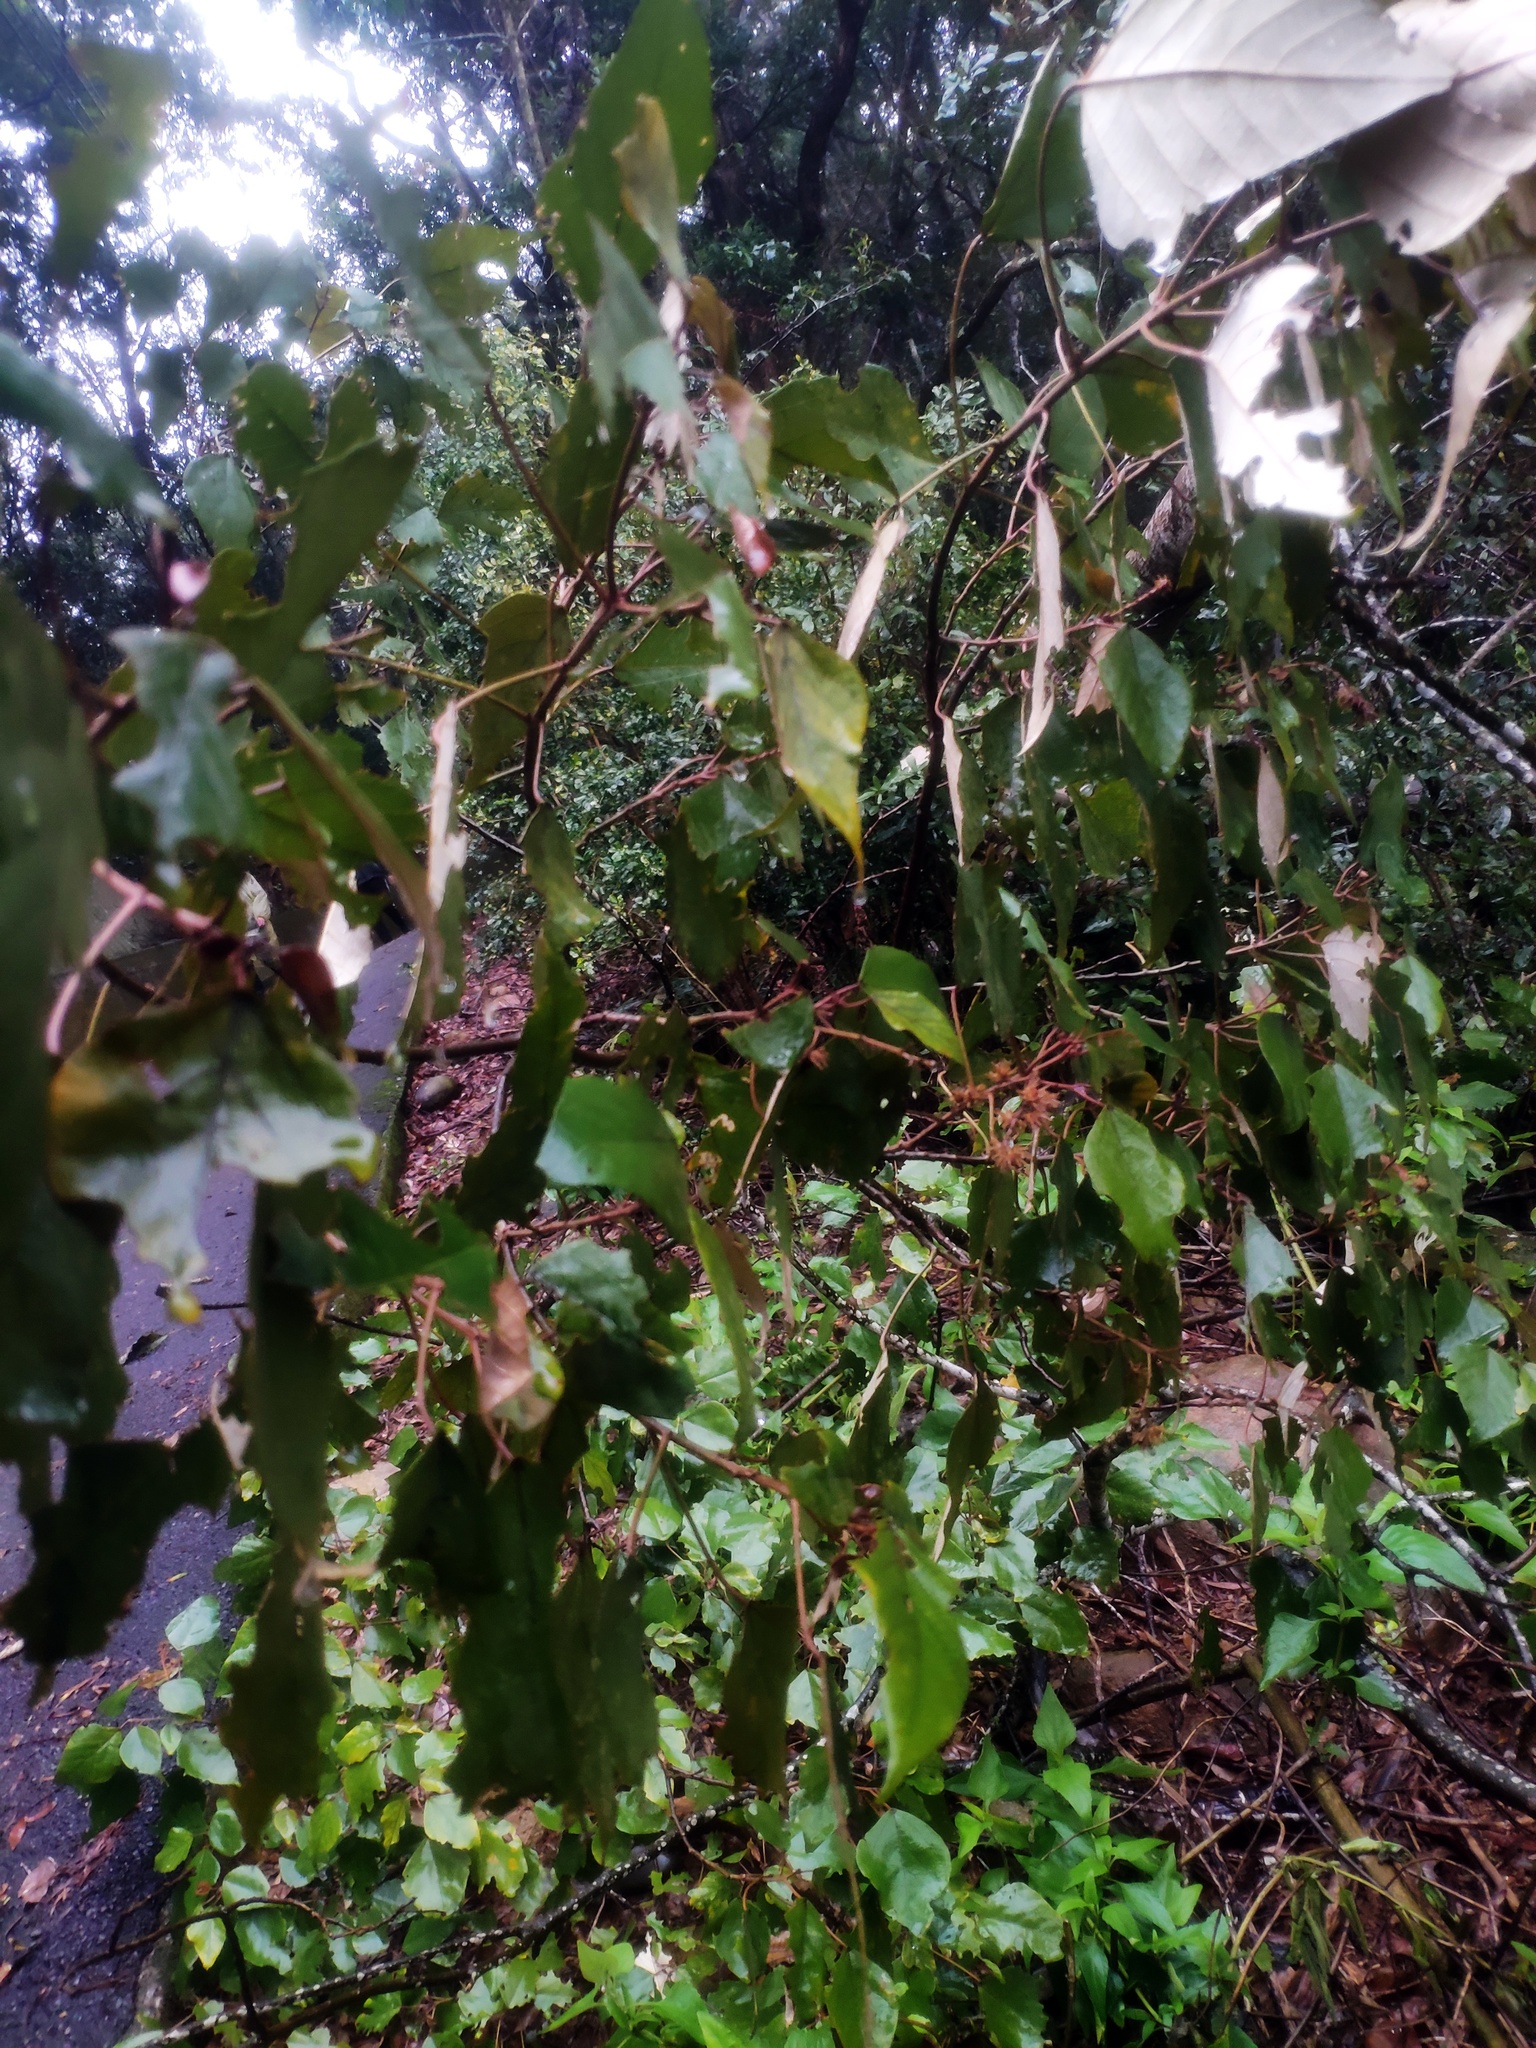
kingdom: Plantae
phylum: Tracheophyta
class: Magnoliopsida
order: Malpighiales
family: Euphorbiaceae
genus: Mallotus
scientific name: Mallotus paniculatus
